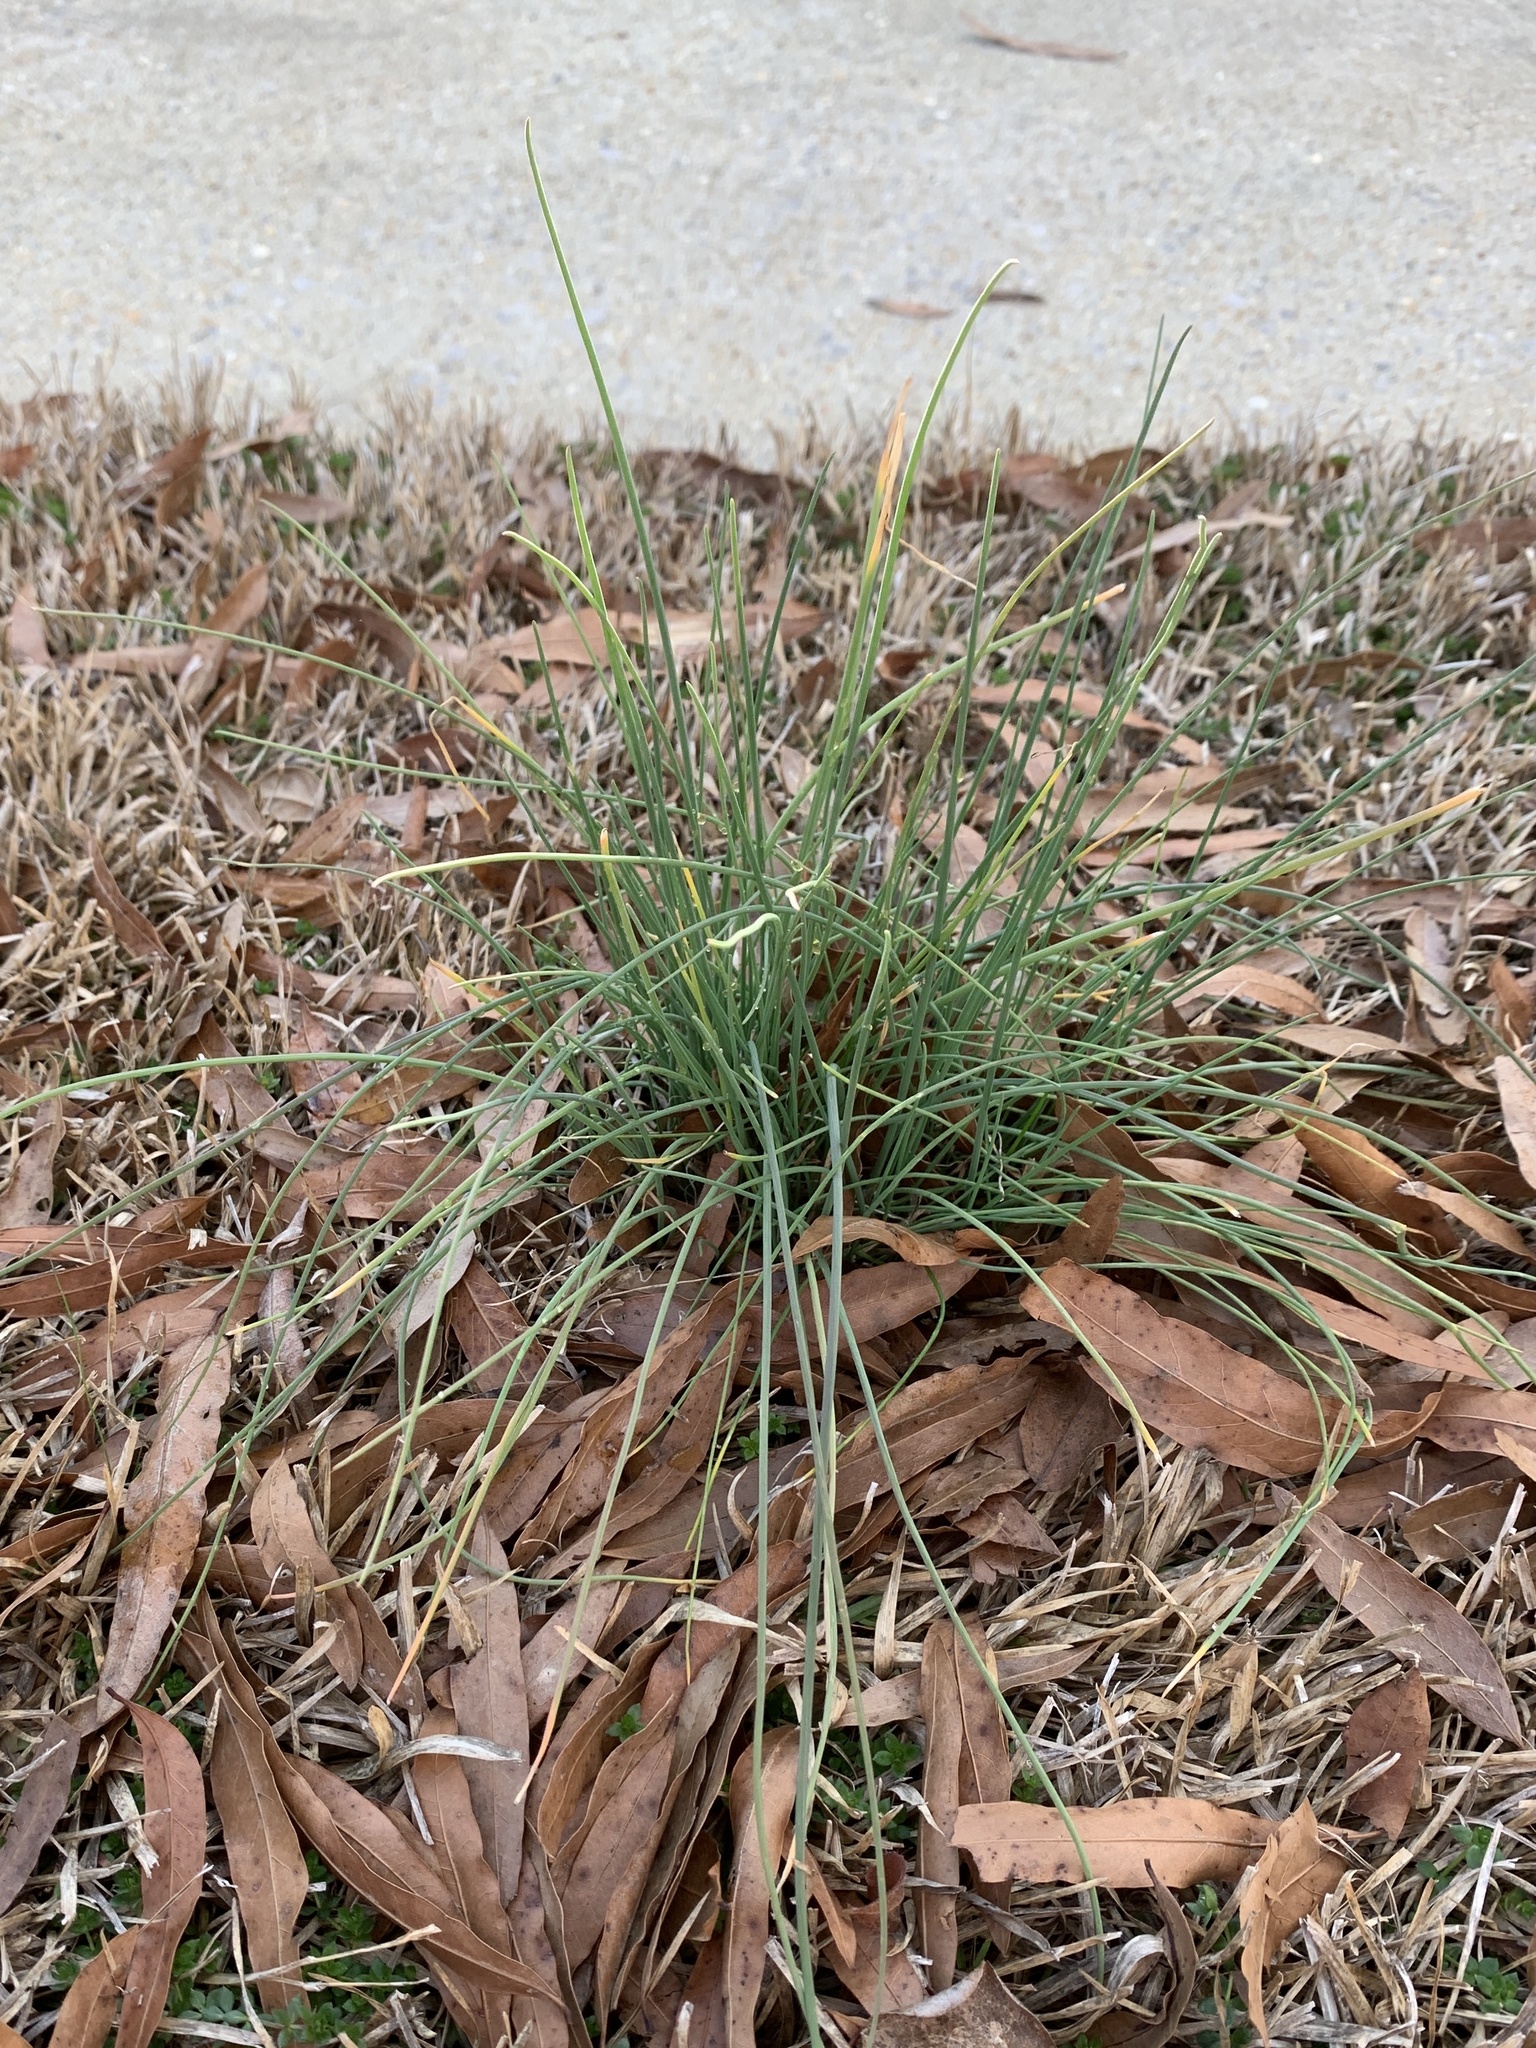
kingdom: Plantae
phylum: Tracheophyta
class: Liliopsida
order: Asparagales
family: Amaryllidaceae
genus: Allium
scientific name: Allium vineale
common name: Crow garlic
